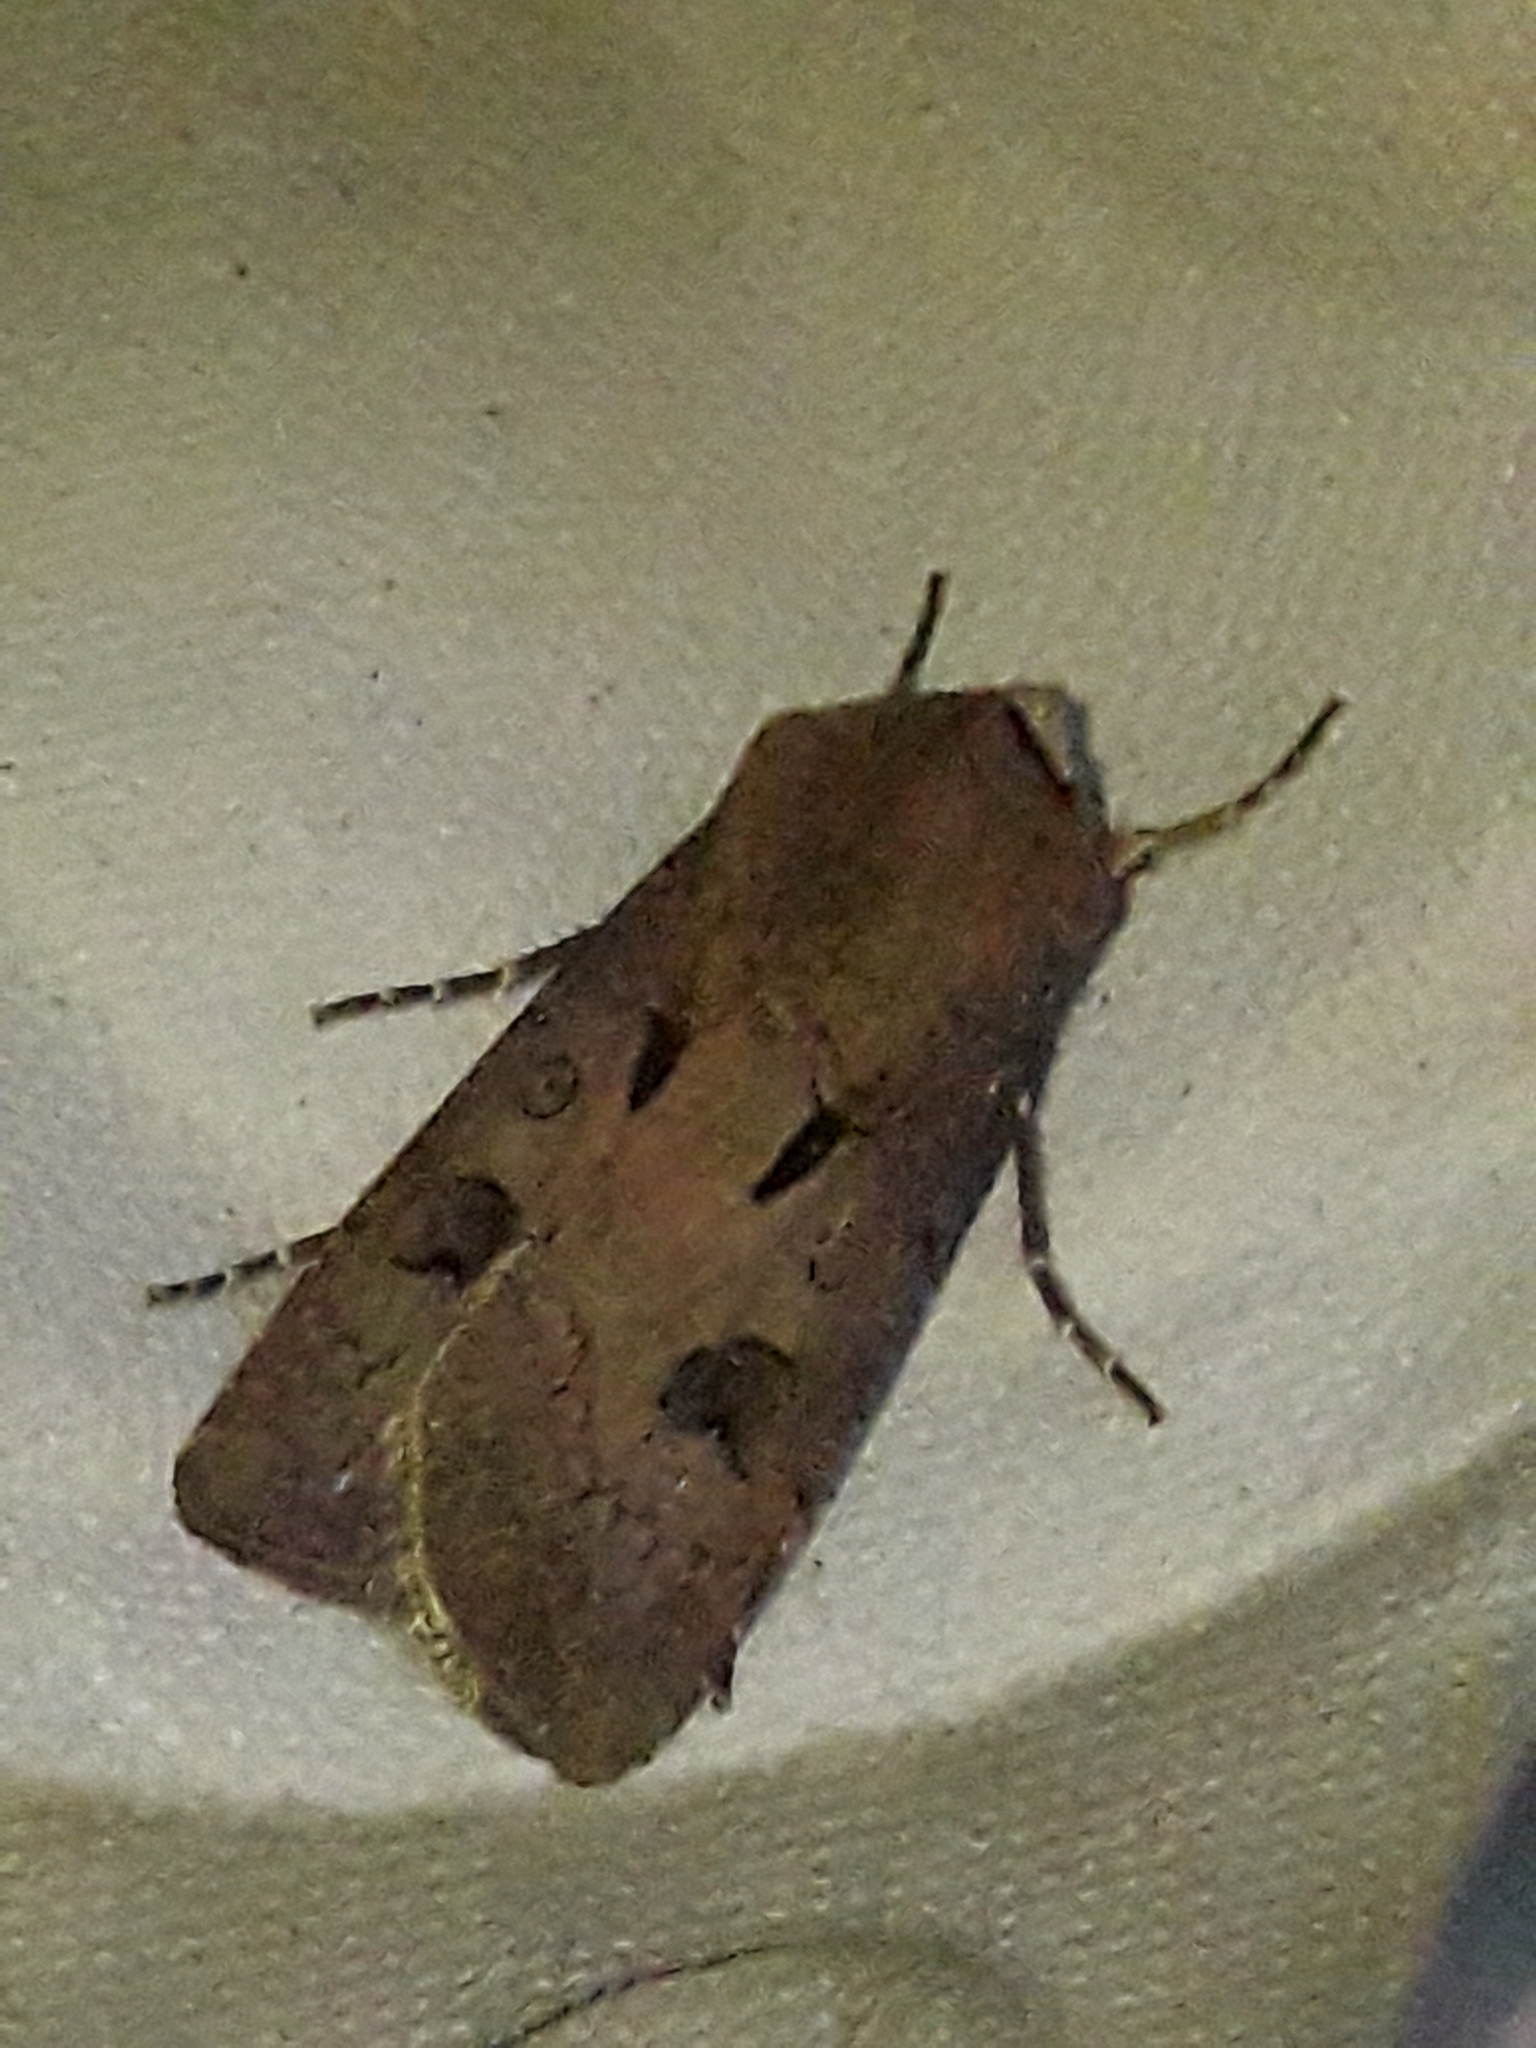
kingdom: Animalia
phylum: Arthropoda
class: Insecta
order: Lepidoptera
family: Noctuidae
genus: Agrotis
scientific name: Agrotis exclamationis
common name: Heart and dart
